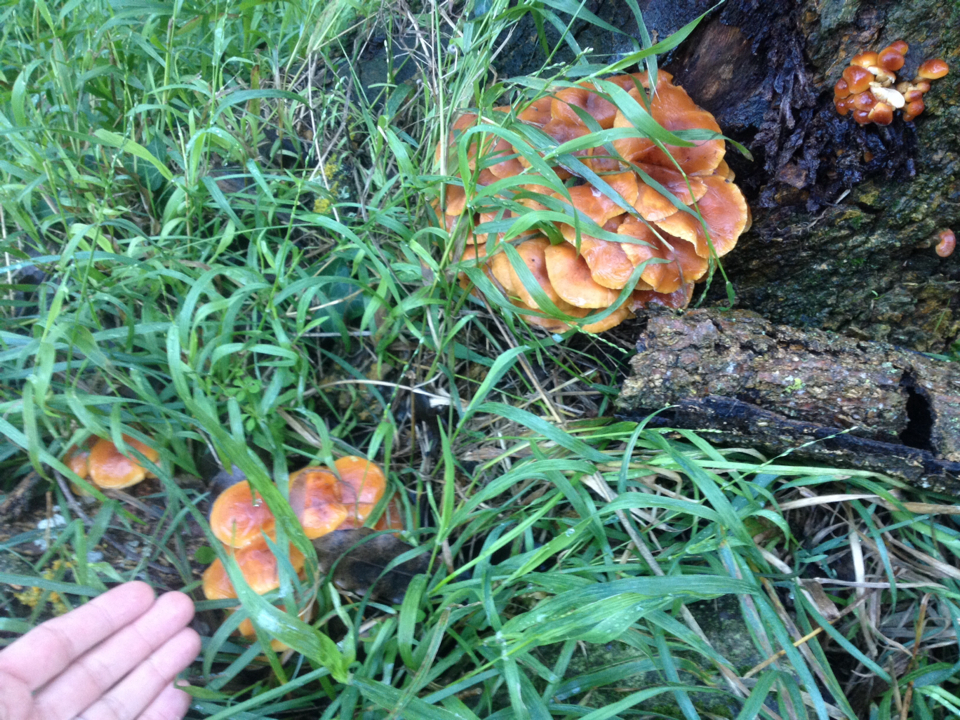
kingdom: Fungi
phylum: Basidiomycota
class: Agaricomycetes
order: Agaricales
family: Physalacriaceae
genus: Flammulina
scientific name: Flammulina velutipes
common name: Velvet shank
